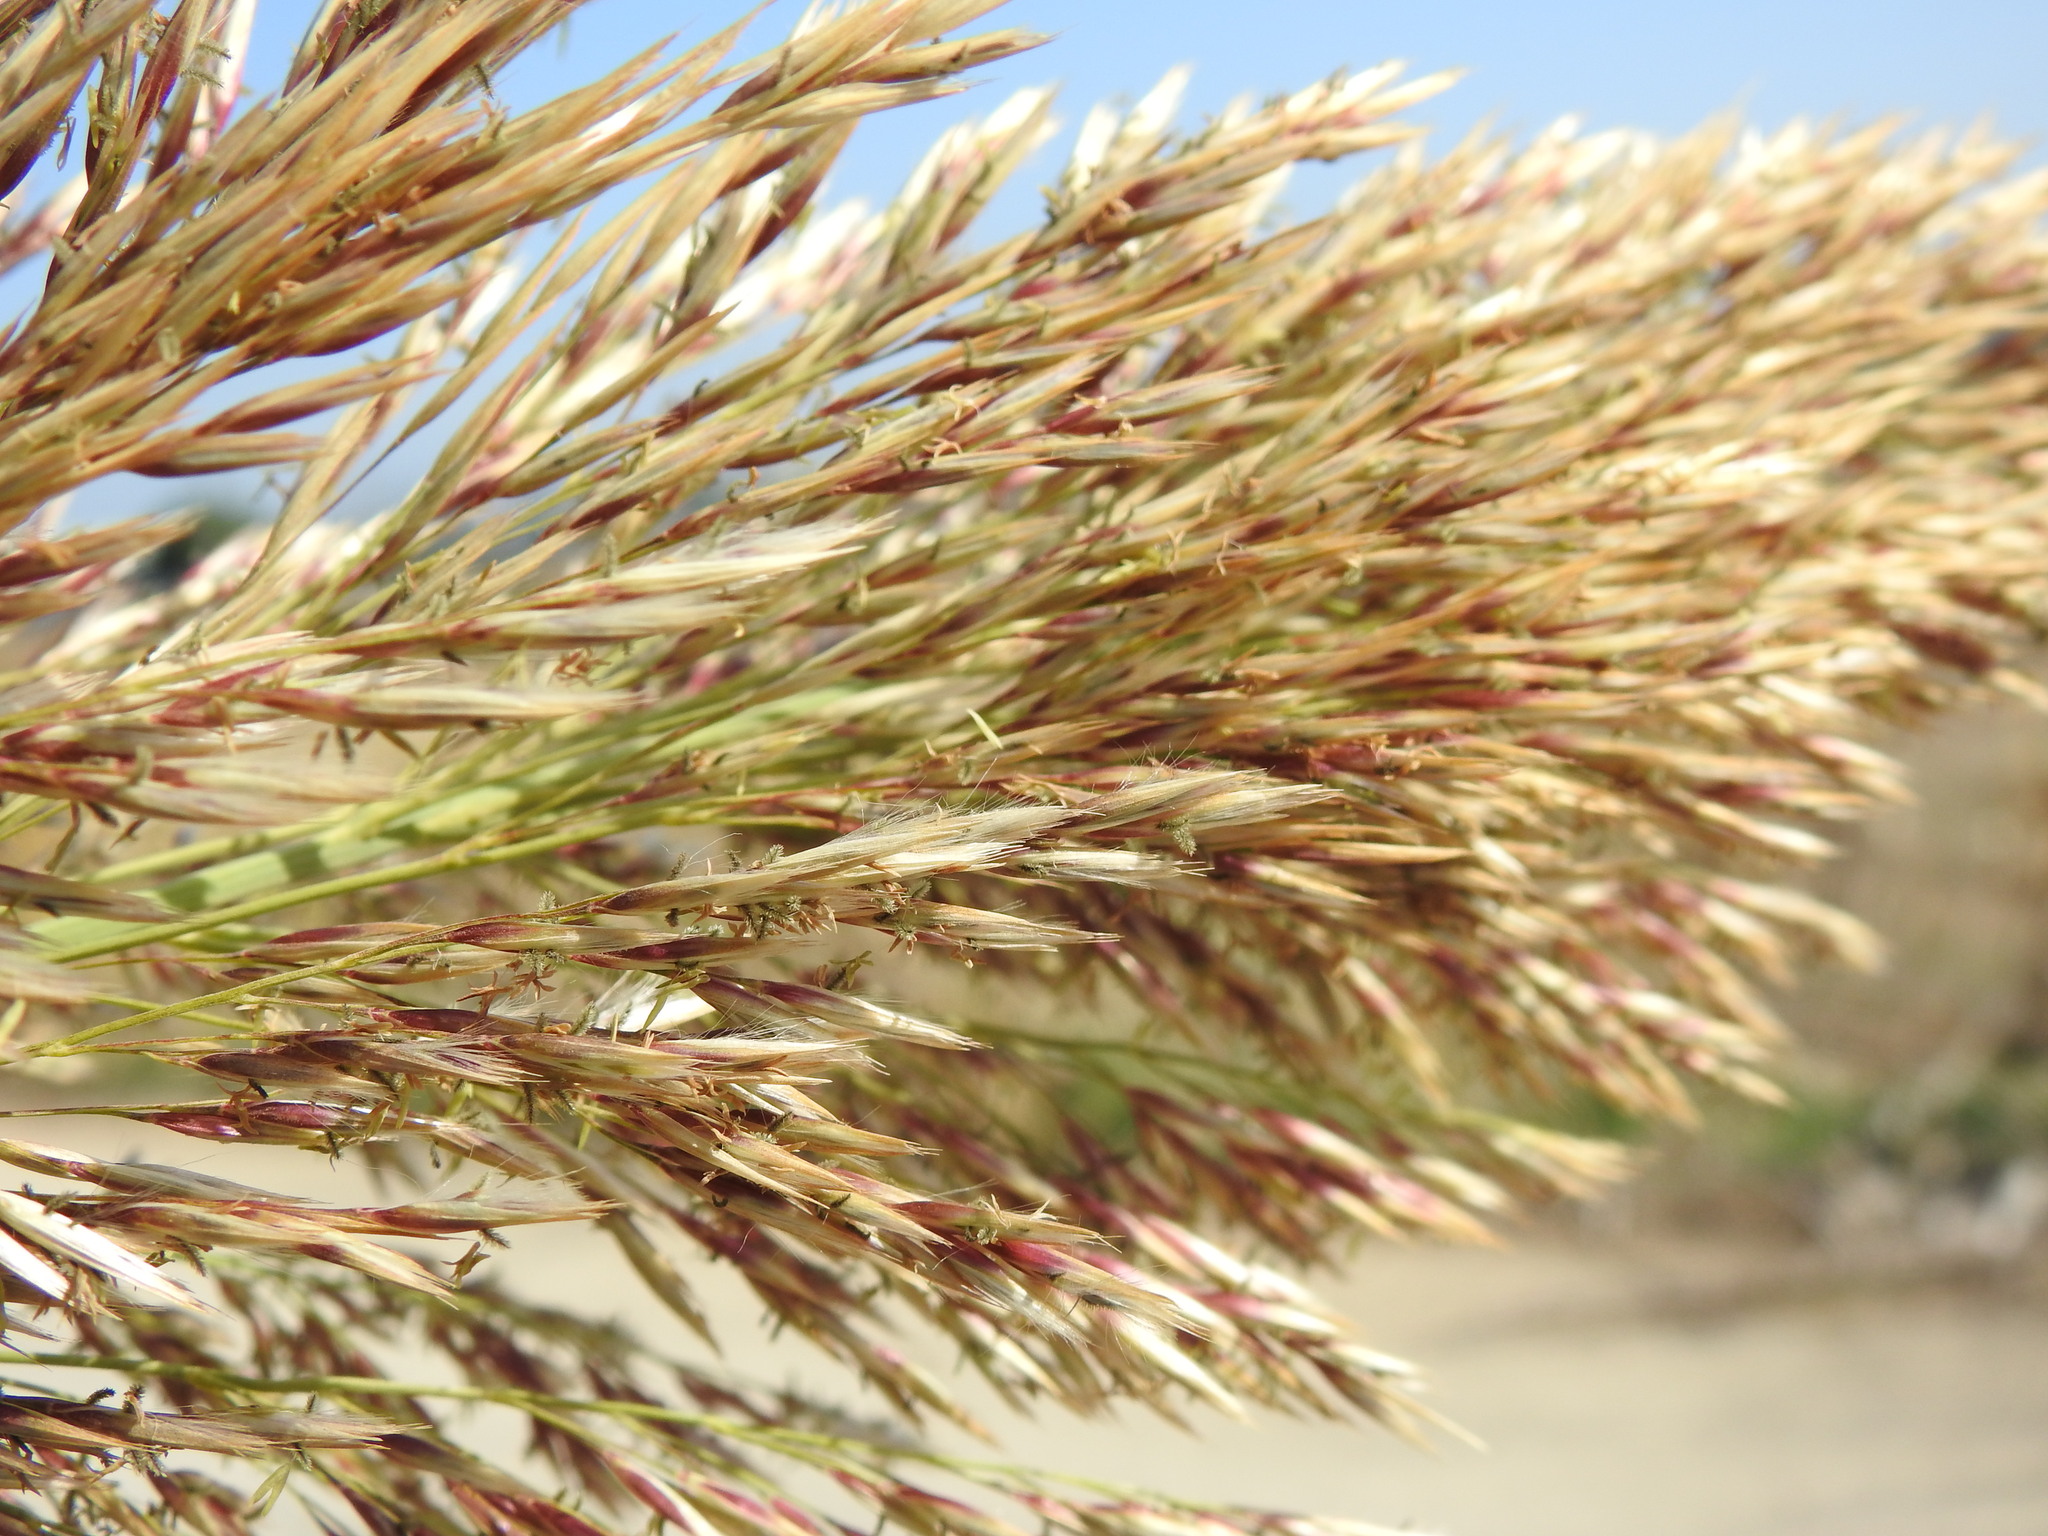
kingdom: Plantae
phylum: Tracheophyta
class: Liliopsida
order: Poales
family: Poaceae
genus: Arundo
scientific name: Arundo donax
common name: Giant reed
